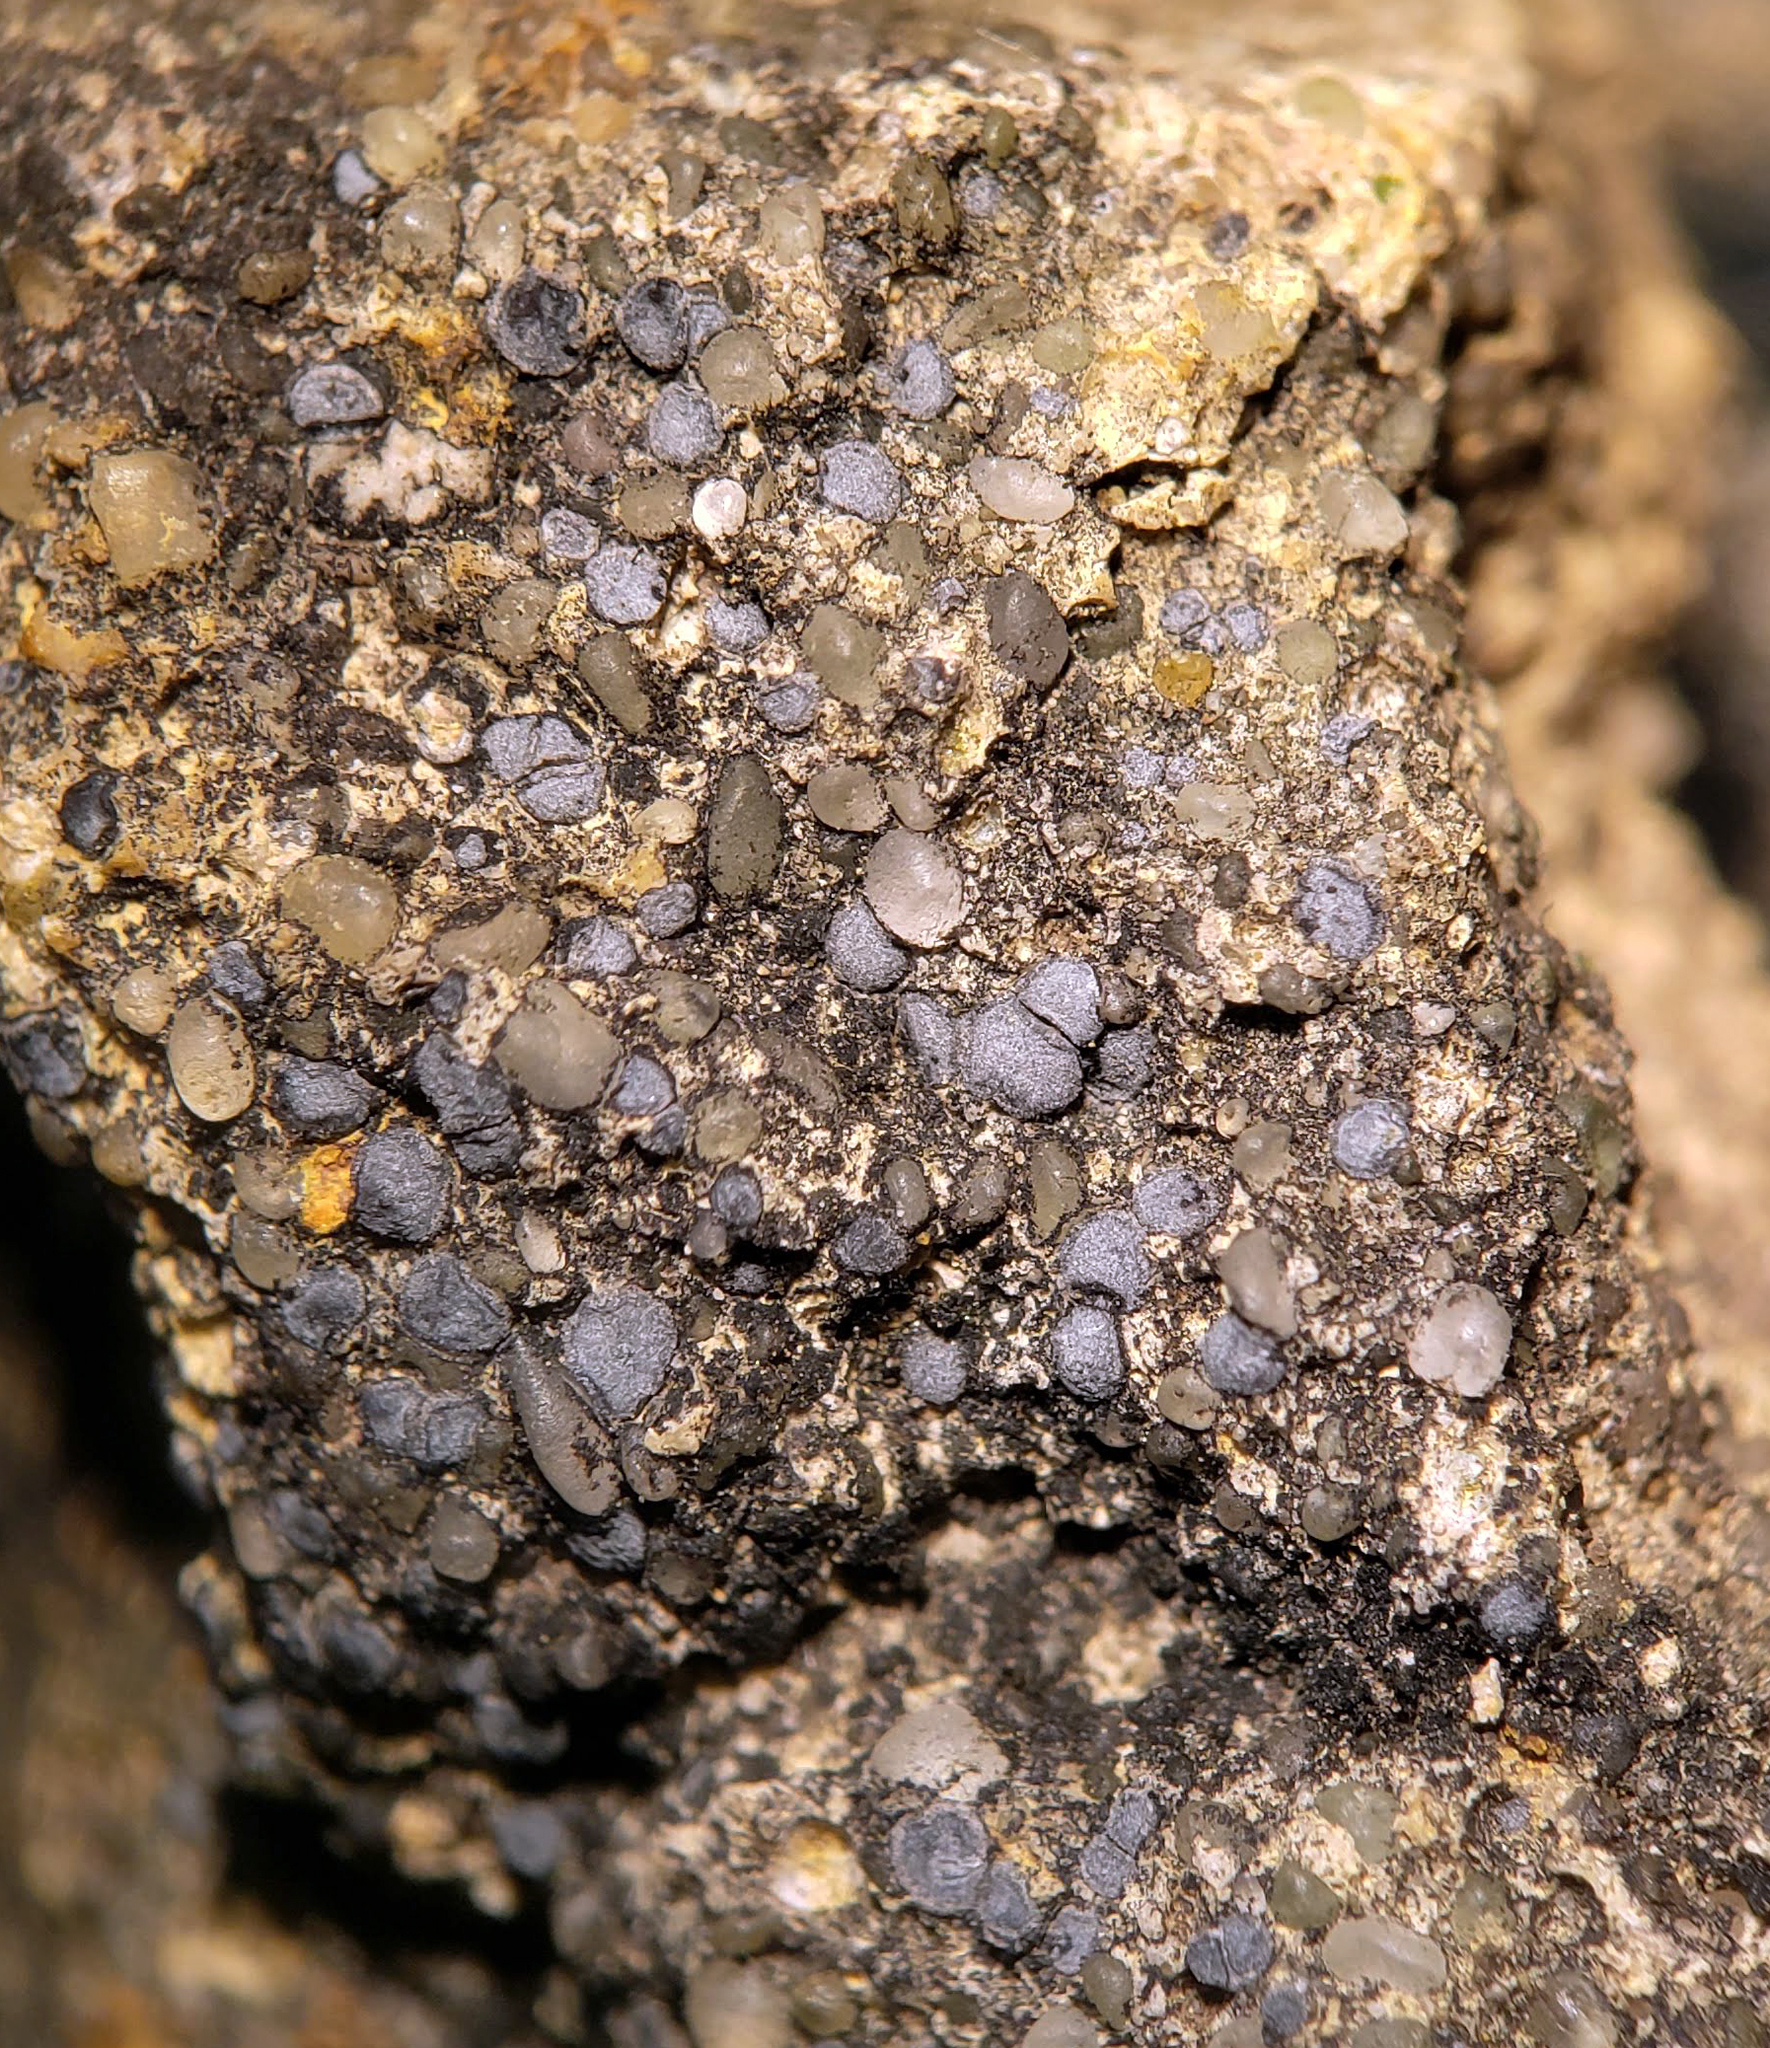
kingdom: Fungi
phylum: Ascomycota
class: Lecanoromycetes
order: Acarosporales
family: Acarosporaceae
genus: Sarcogyne
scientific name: Sarcogyne regularis
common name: Frosted grain-spored lichen
